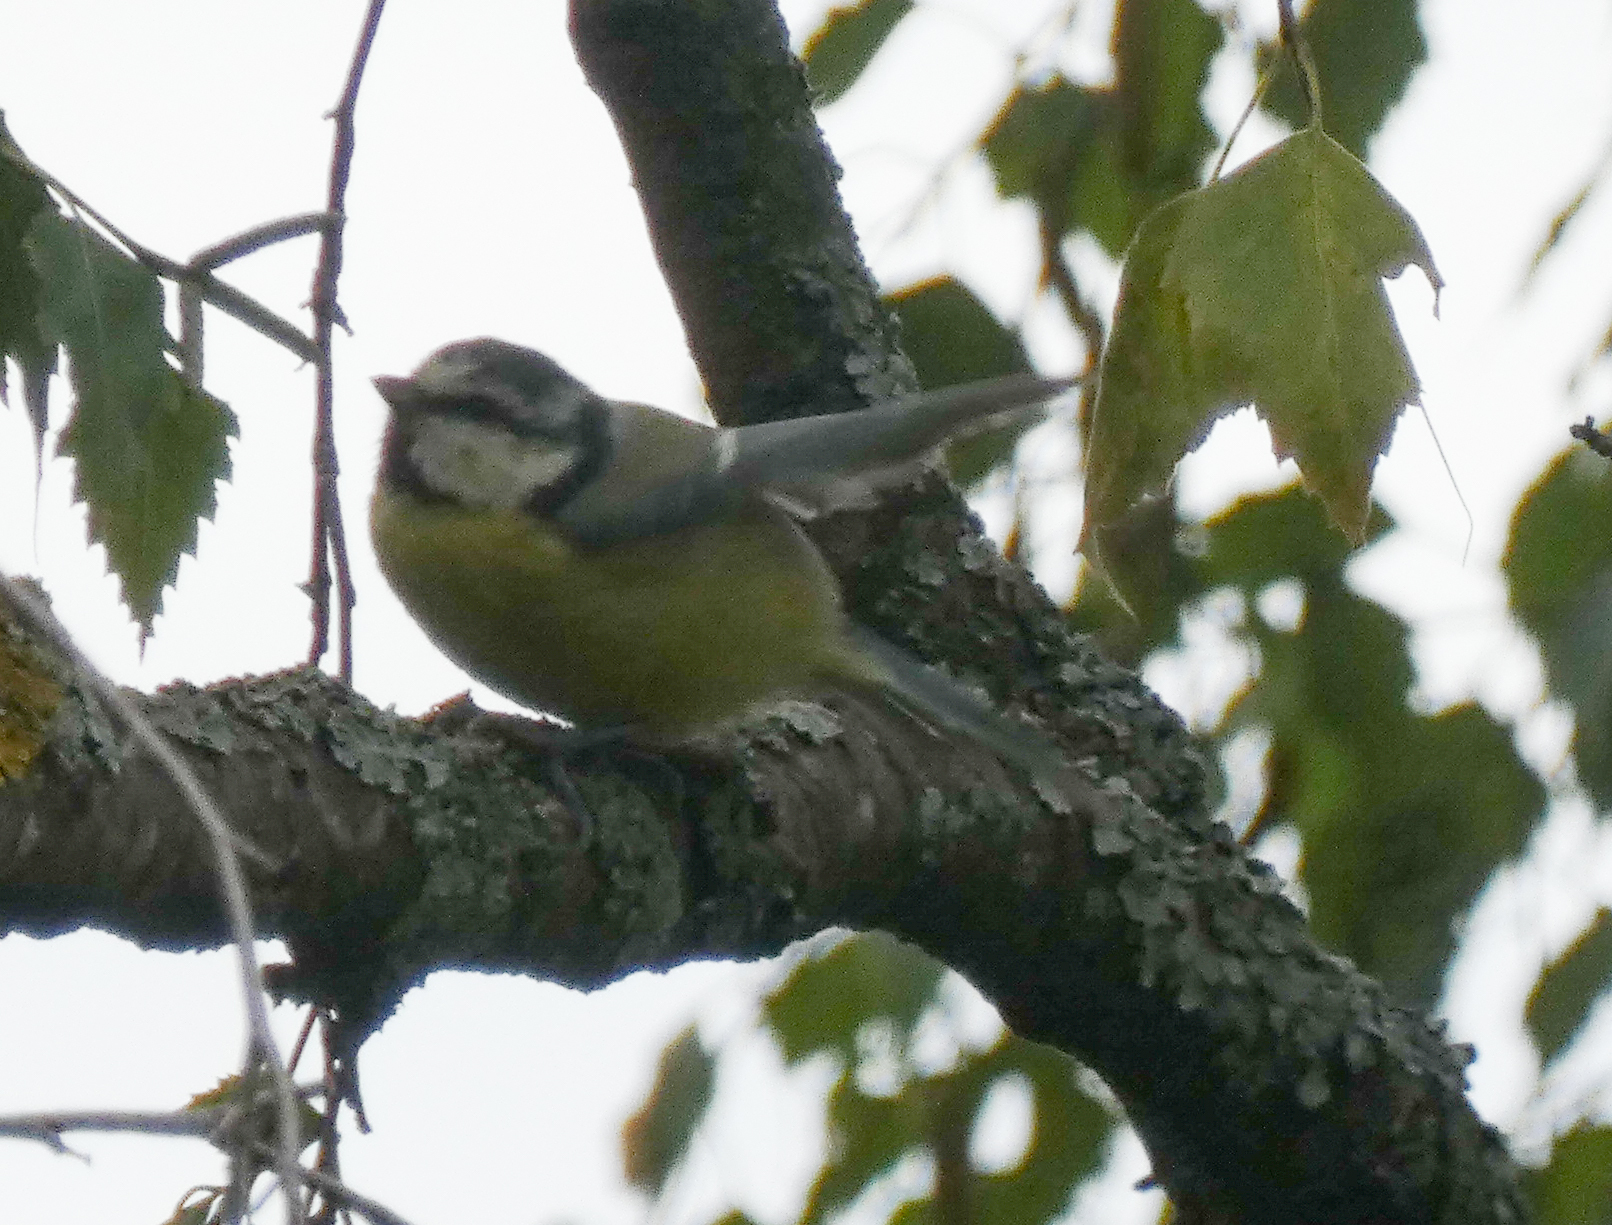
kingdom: Animalia
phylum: Chordata
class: Aves
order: Passeriformes
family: Paridae
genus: Cyanistes
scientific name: Cyanistes caeruleus
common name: Eurasian blue tit
